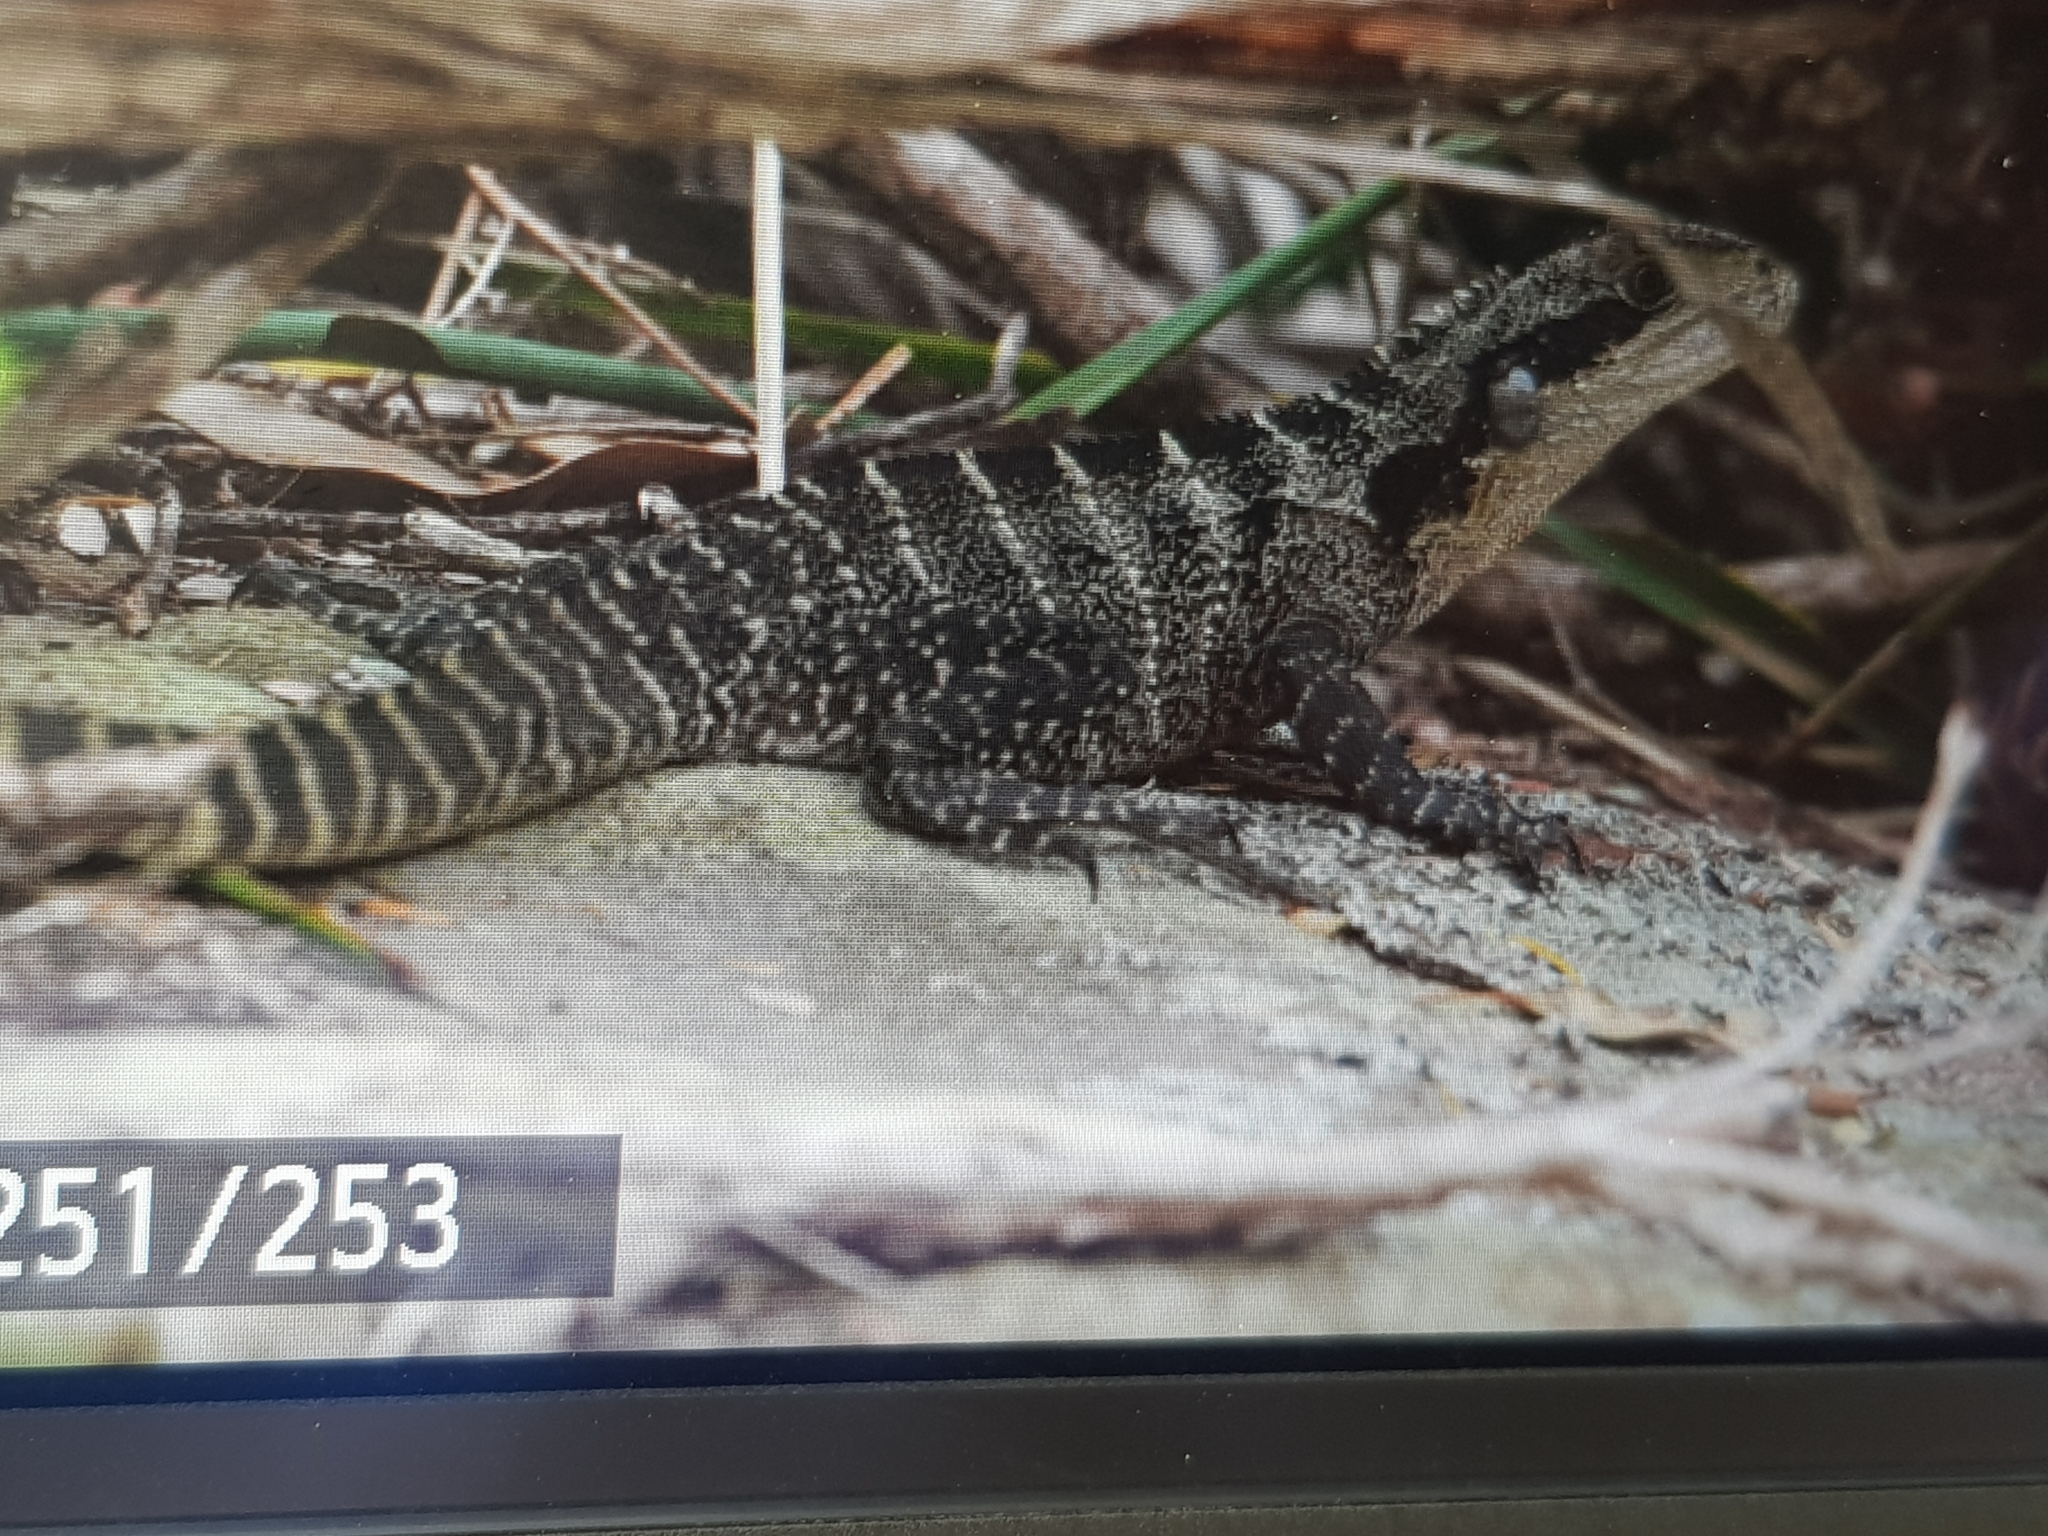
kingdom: Animalia
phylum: Chordata
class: Squamata
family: Agamidae
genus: Intellagama
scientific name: Intellagama lesueurii
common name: Eastern water dragon
